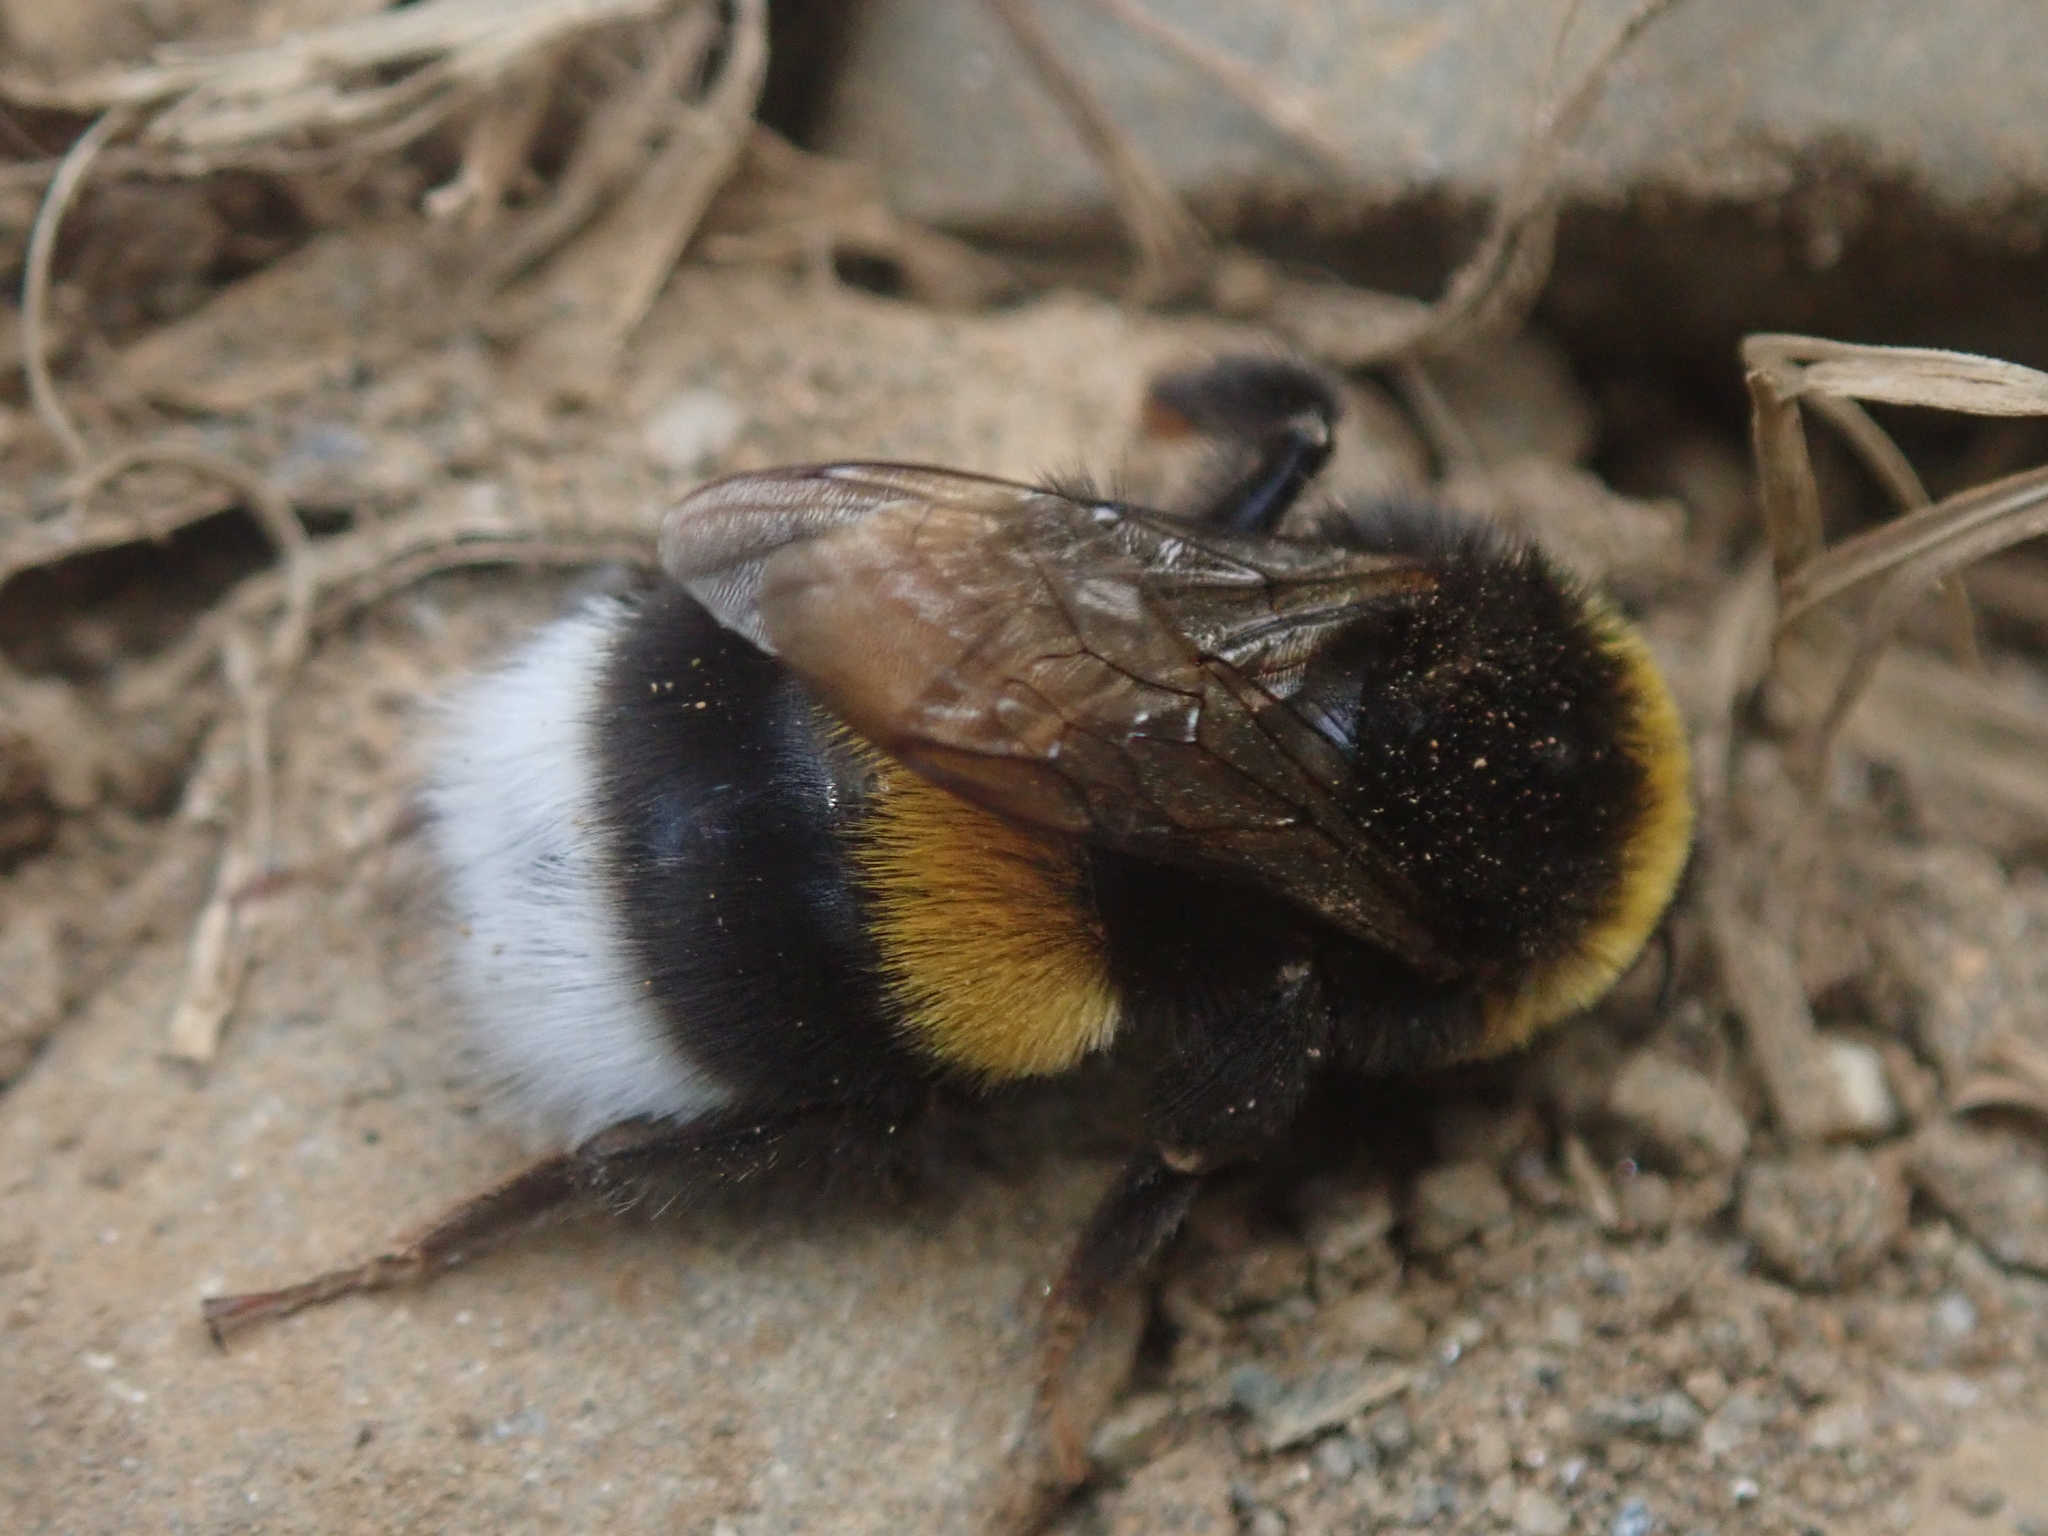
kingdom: Animalia
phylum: Arthropoda
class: Insecta
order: Hymenoptera
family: Apidae
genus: Bombus
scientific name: Bombus terrestris
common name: Buff-tailed bumblebee
